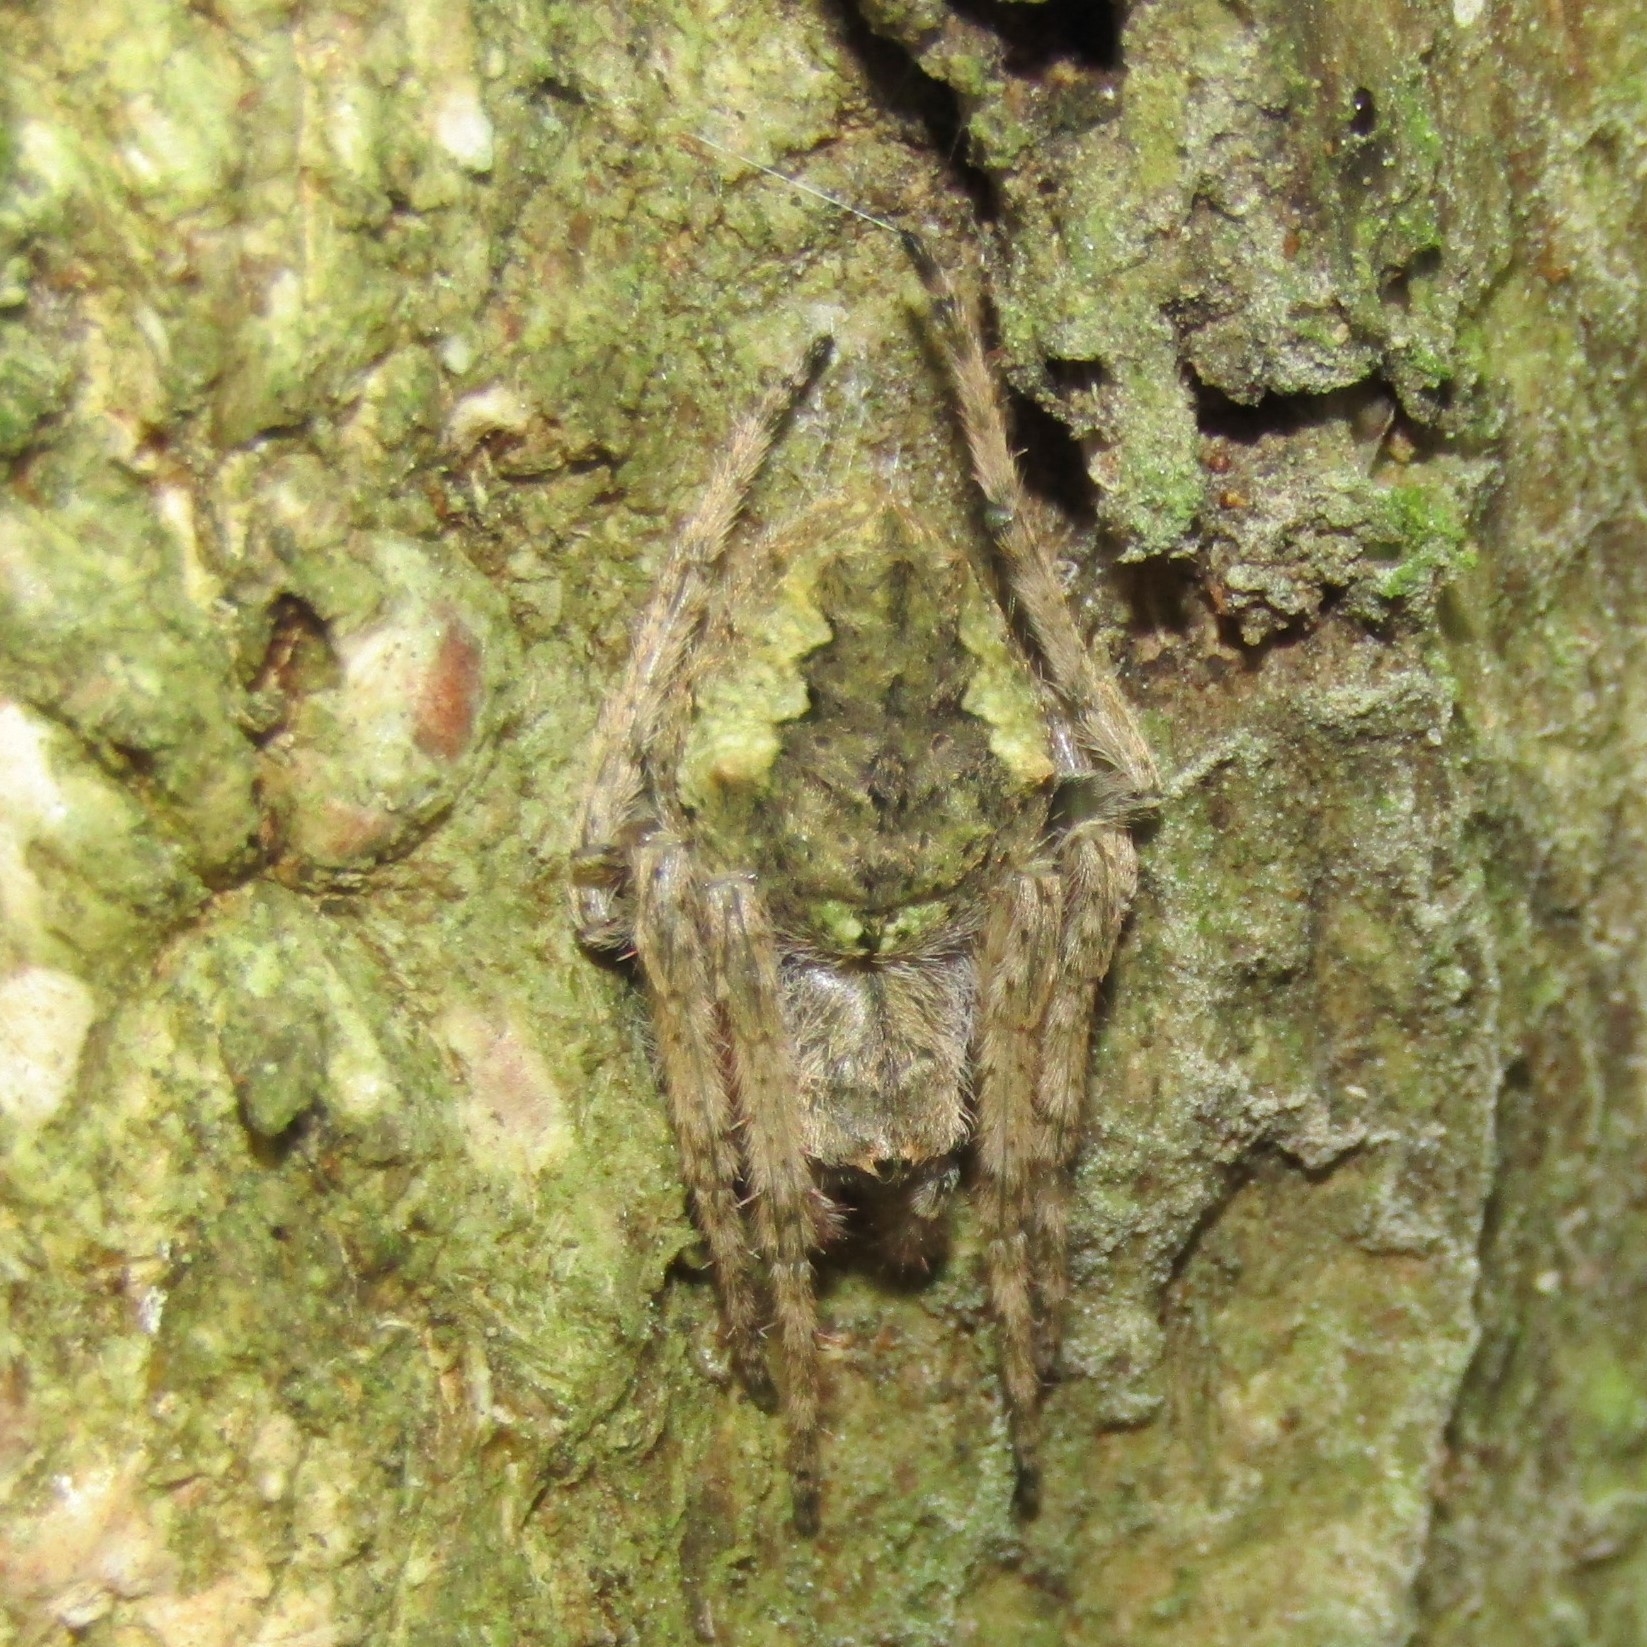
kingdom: Animalia
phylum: Arthropoda
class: Arachnida
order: Araneae
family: Araneidae
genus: Eriophora
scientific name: Eriophora pustulosa
